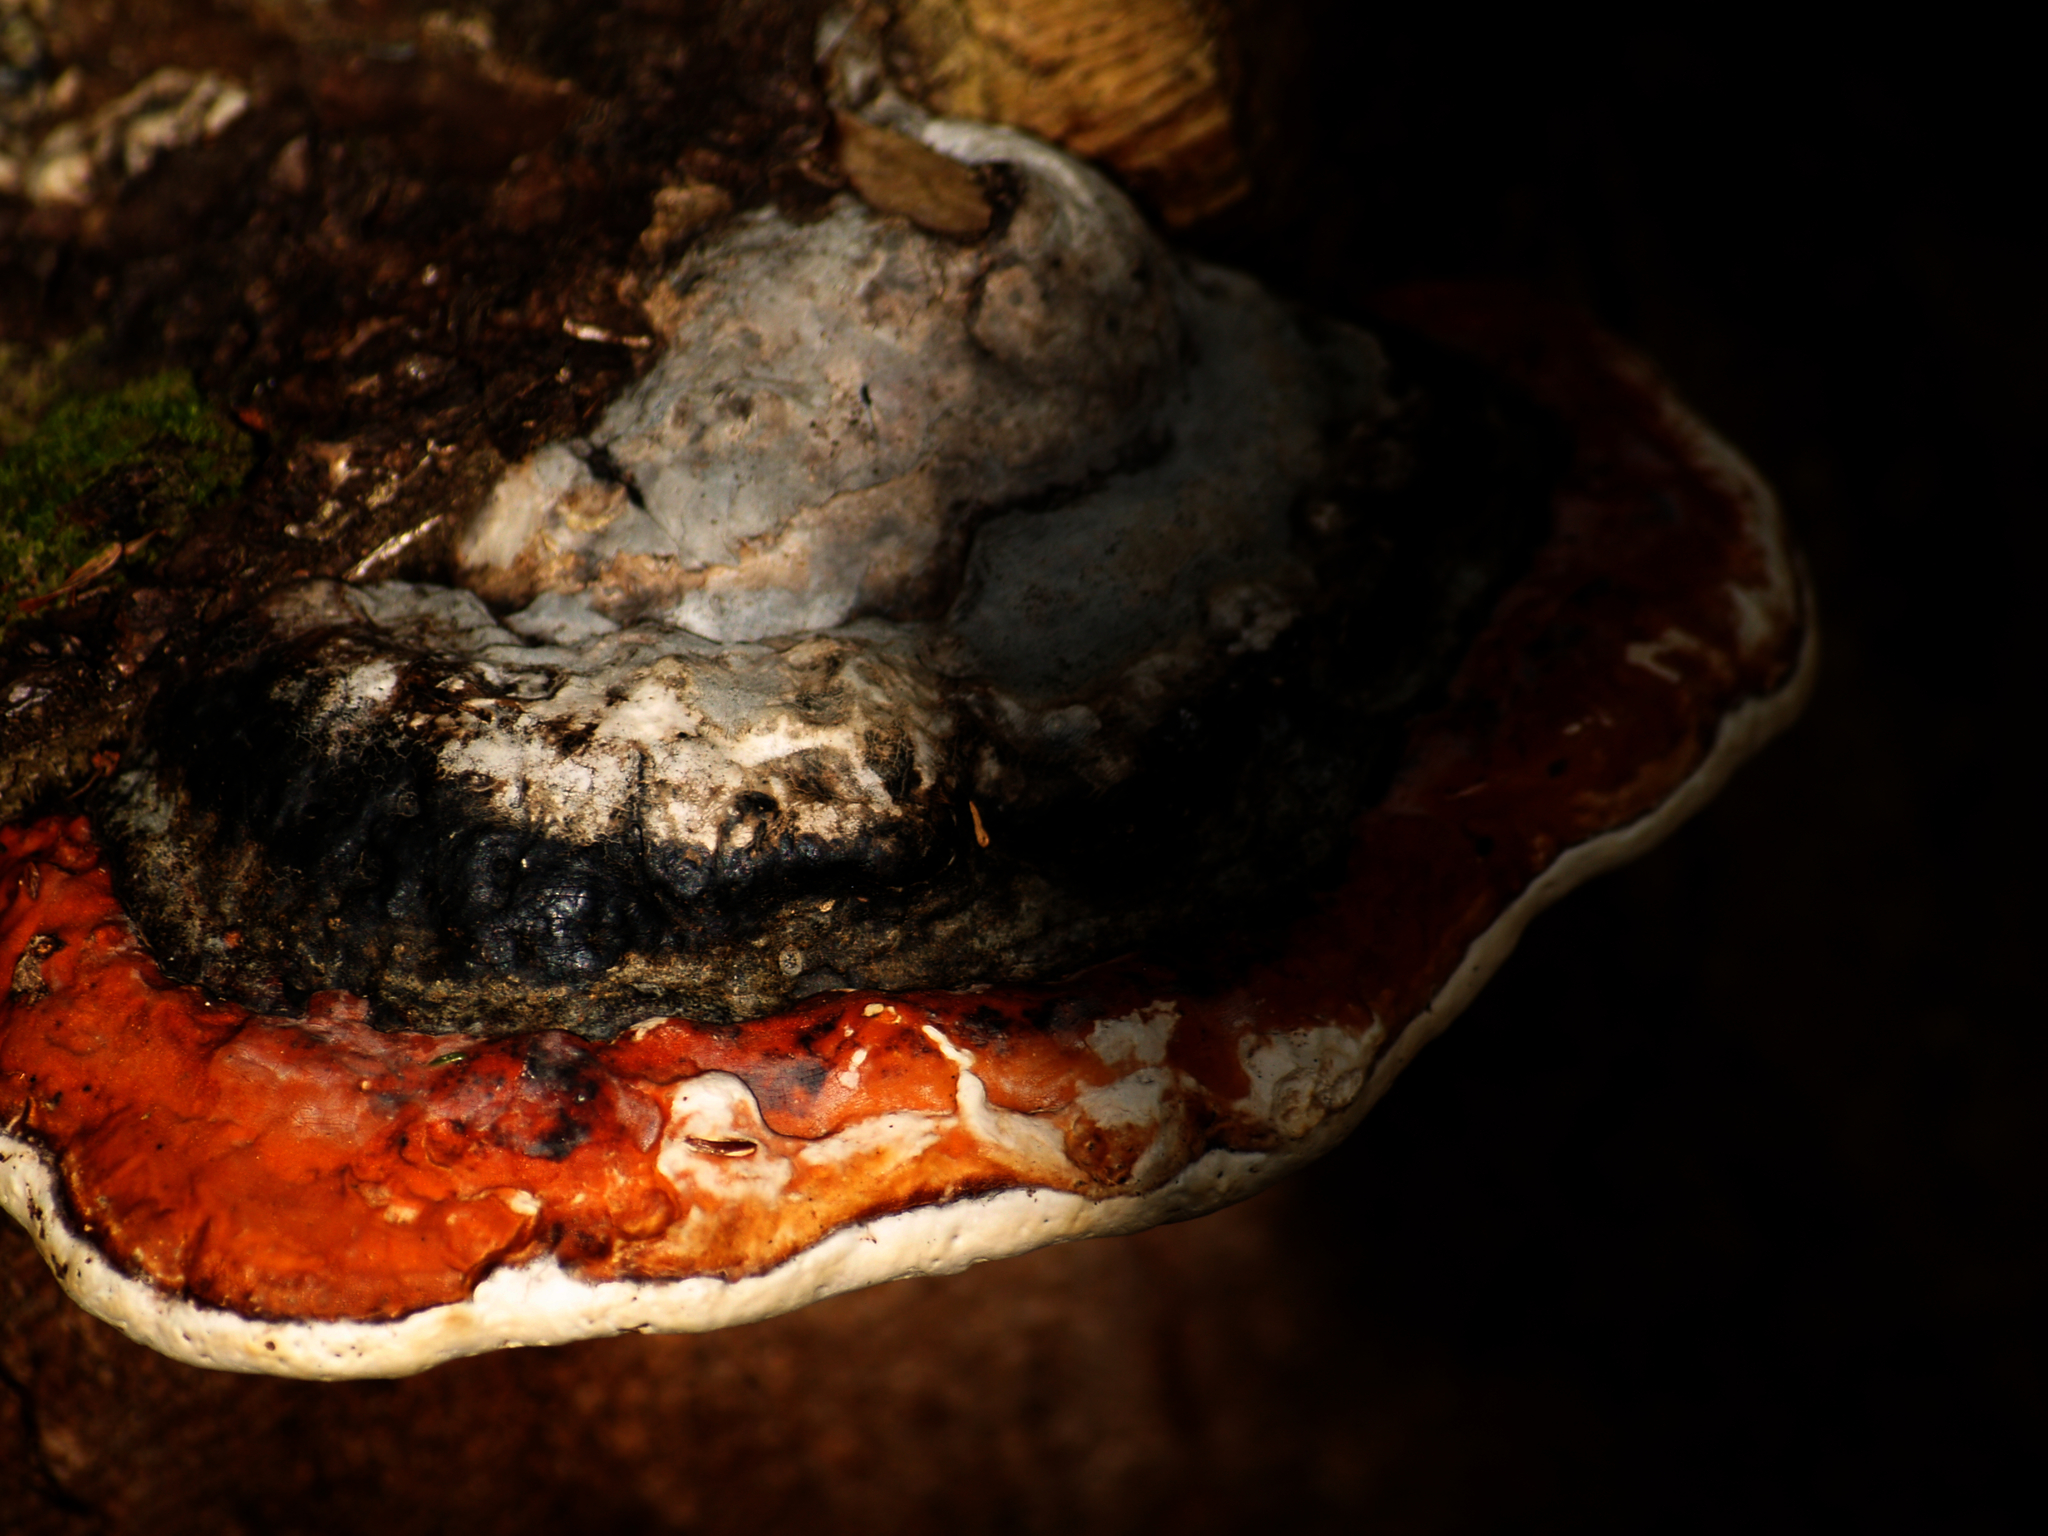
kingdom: Fungi
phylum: Basidiomycota
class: Agaricomycetes
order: Polyporales
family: Fomitopsidaceae
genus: Fomitopsis
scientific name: Fomitopsis mounceae
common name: Northern red belt
